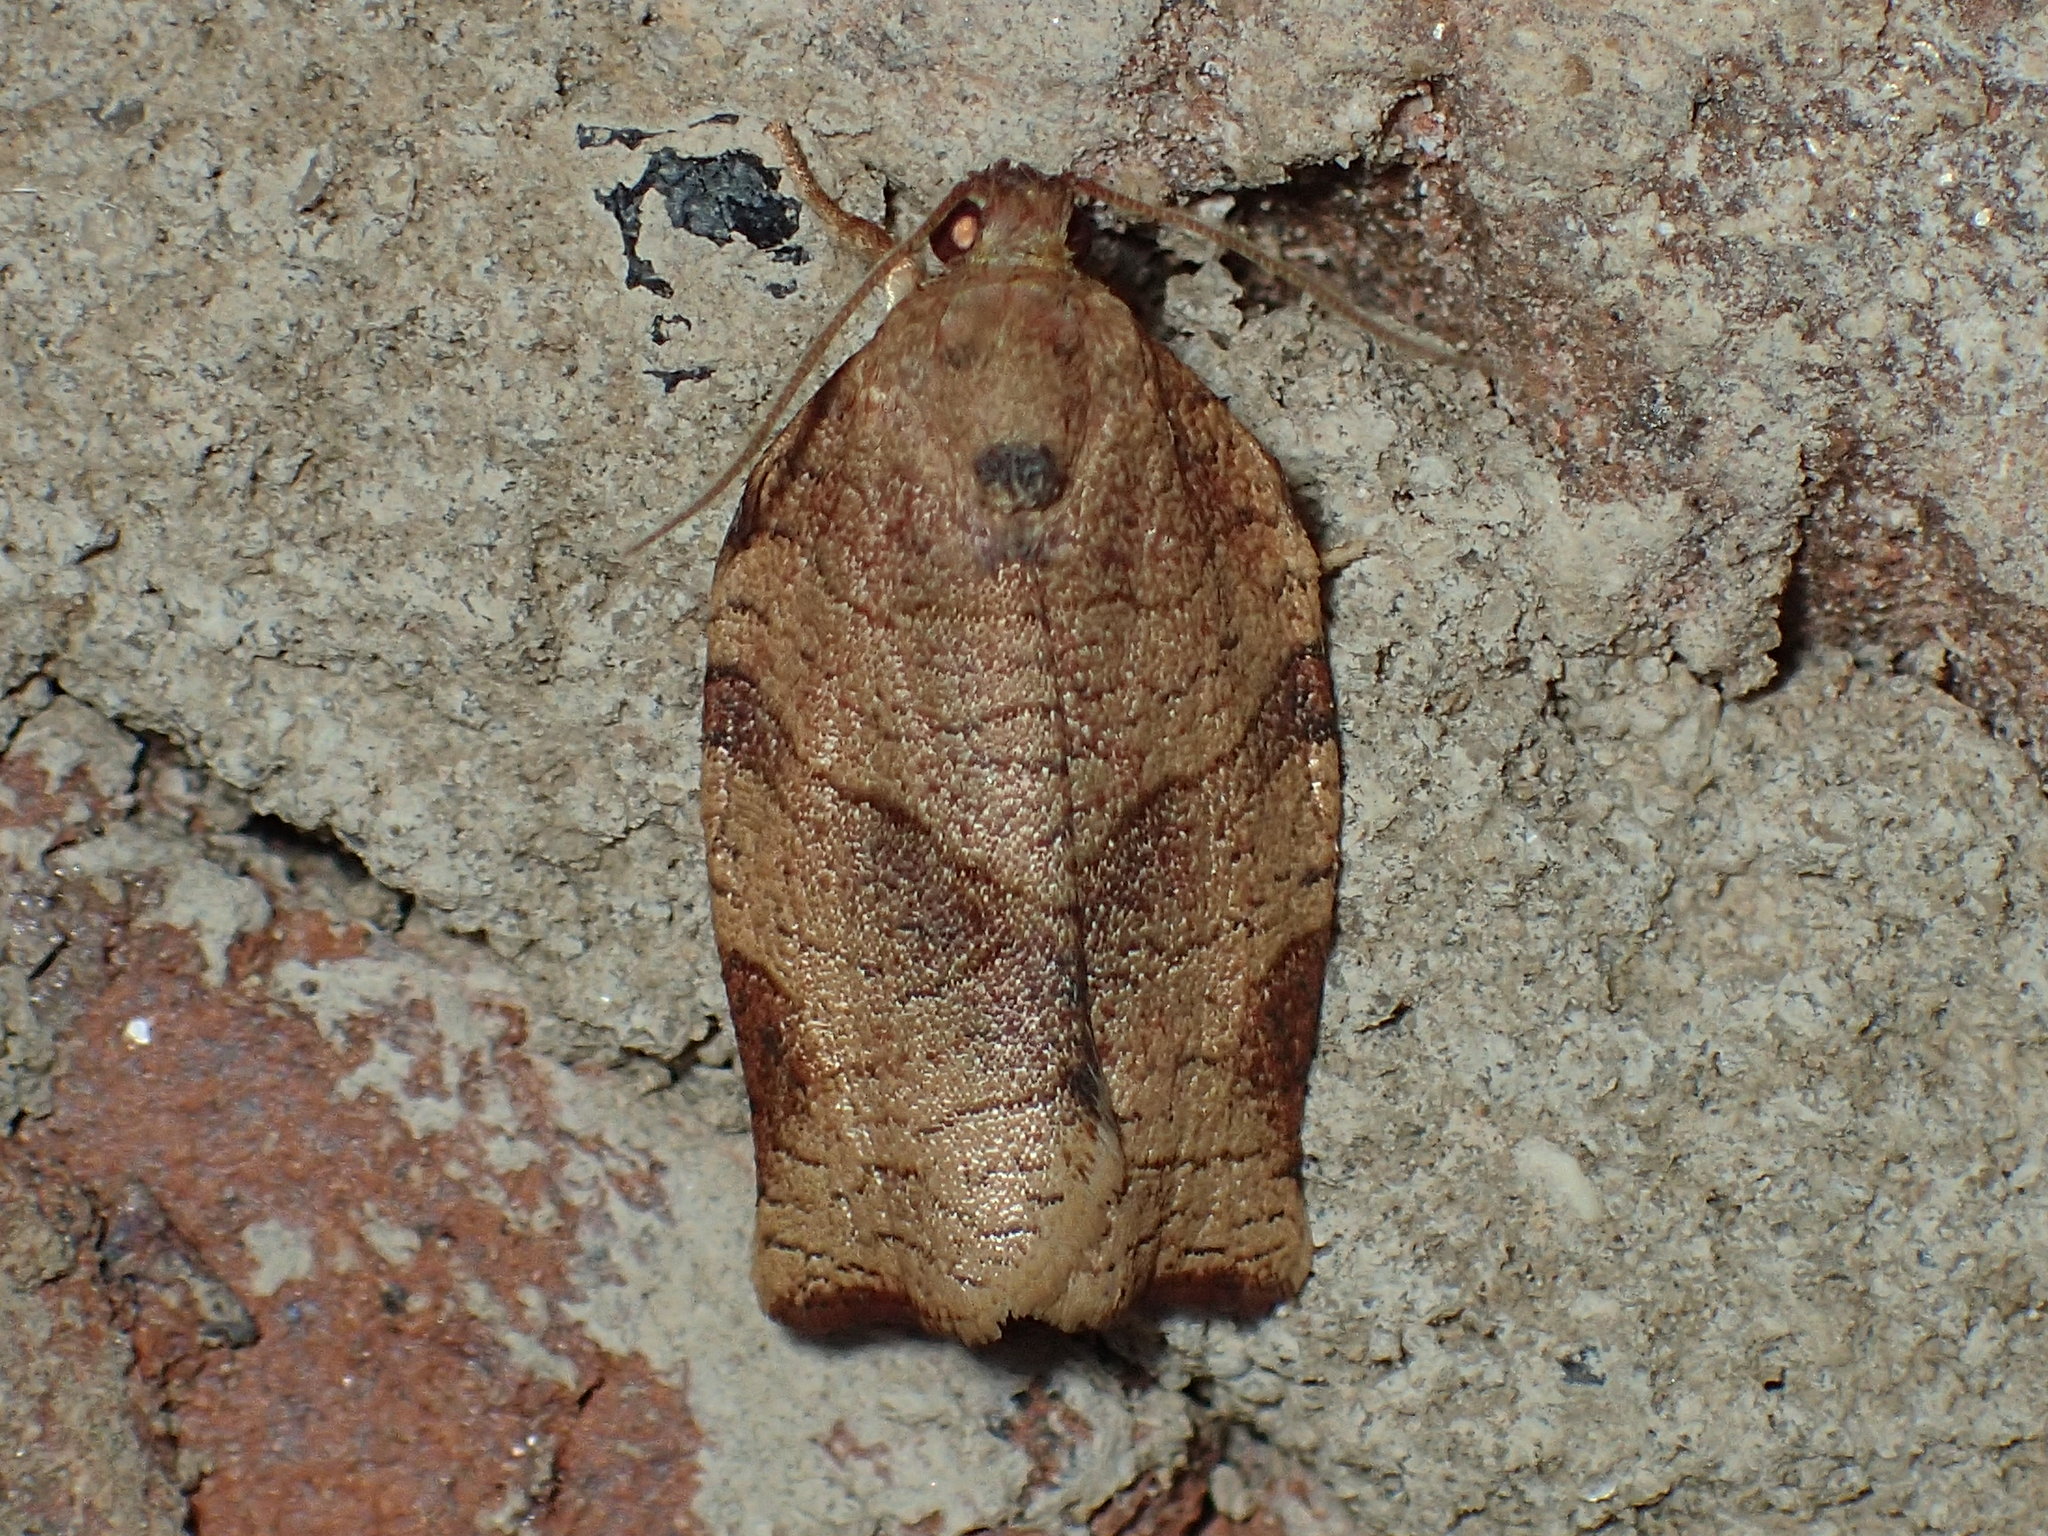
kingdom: Animalia
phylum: Arthropoda
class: Insecta
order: Lepidoptera
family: Tortricidae
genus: Choristoneura
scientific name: Choristoneura rosaceana
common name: Oblique-banded leafroller moth
